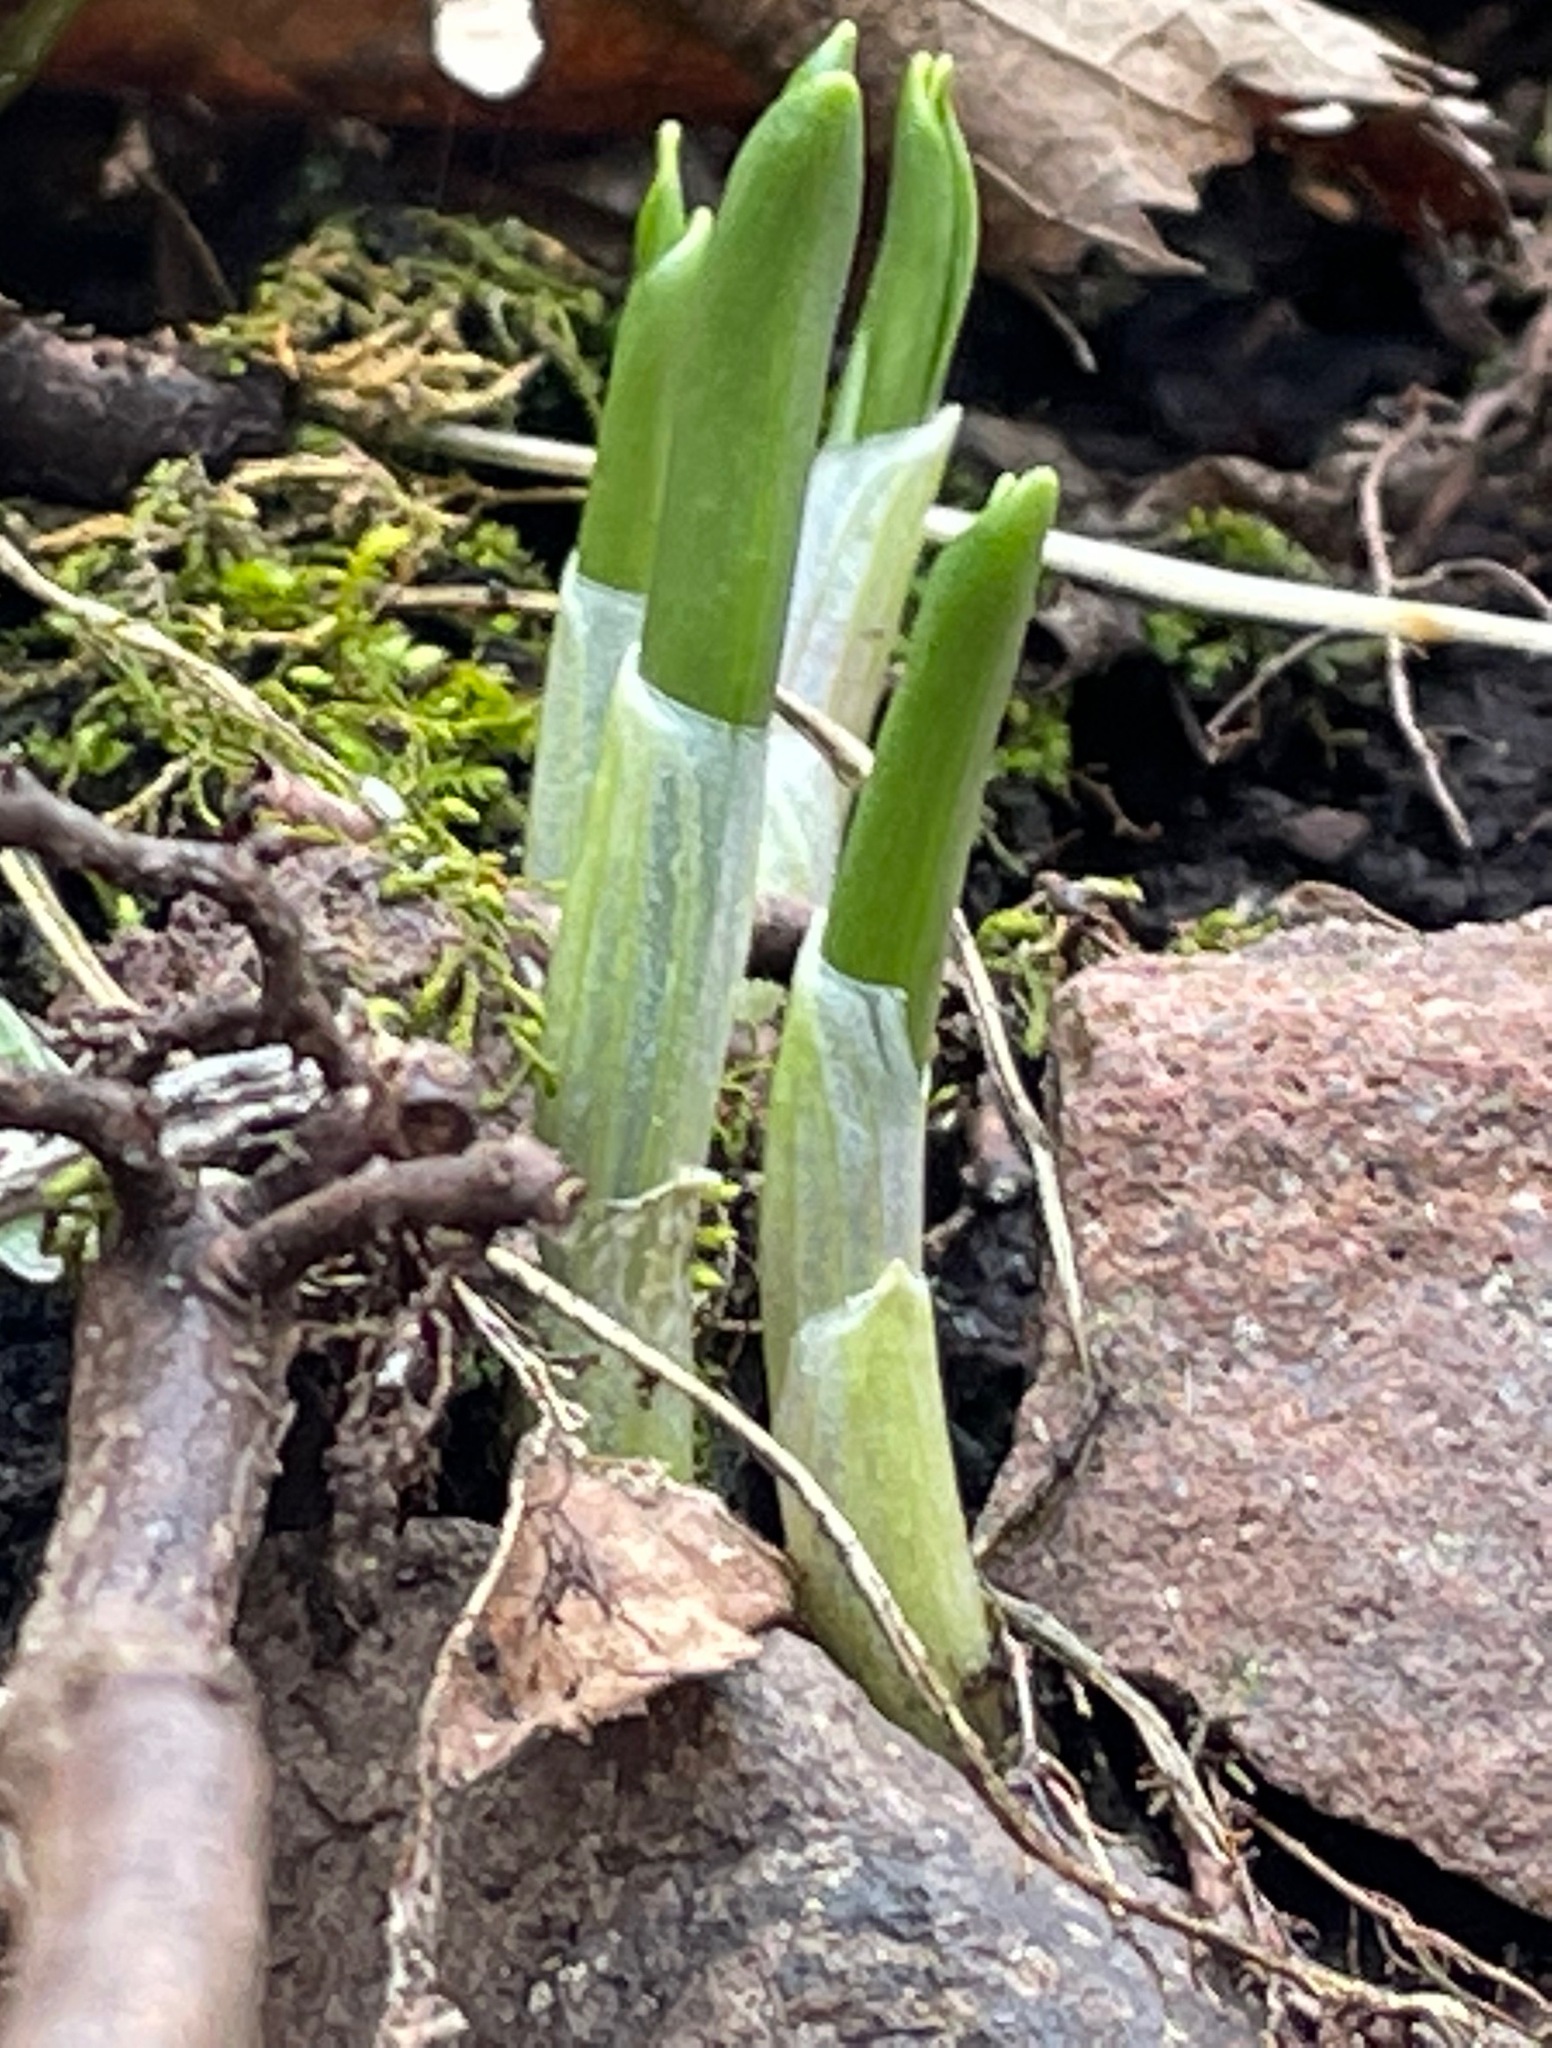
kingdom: Plantae
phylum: Tracheophyta
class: Liliopsida
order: Asparagales
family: Amaryllidaceae
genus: Allium
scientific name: Allium tricoccum
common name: Ramp
